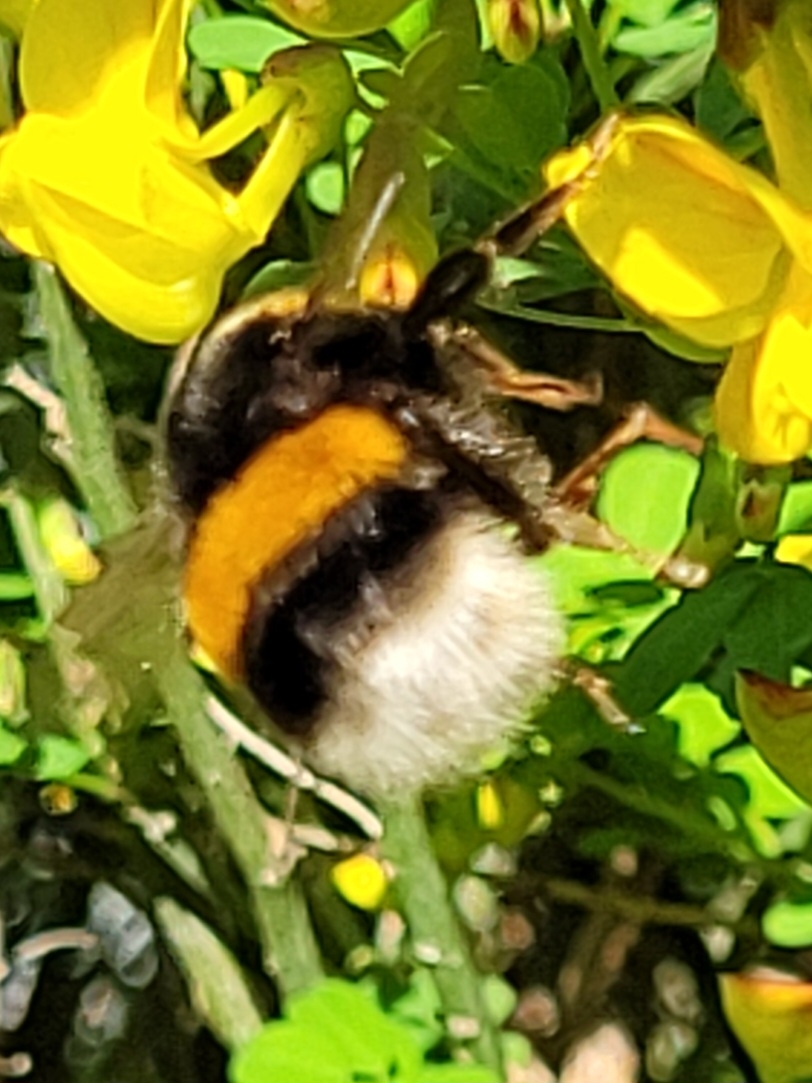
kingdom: Animalia
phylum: Arthropoda
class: Insecta
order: Hymenoptera
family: Apidae
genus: Bombus
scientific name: Bombus terrestris
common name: Buff-tailed bumblebee
